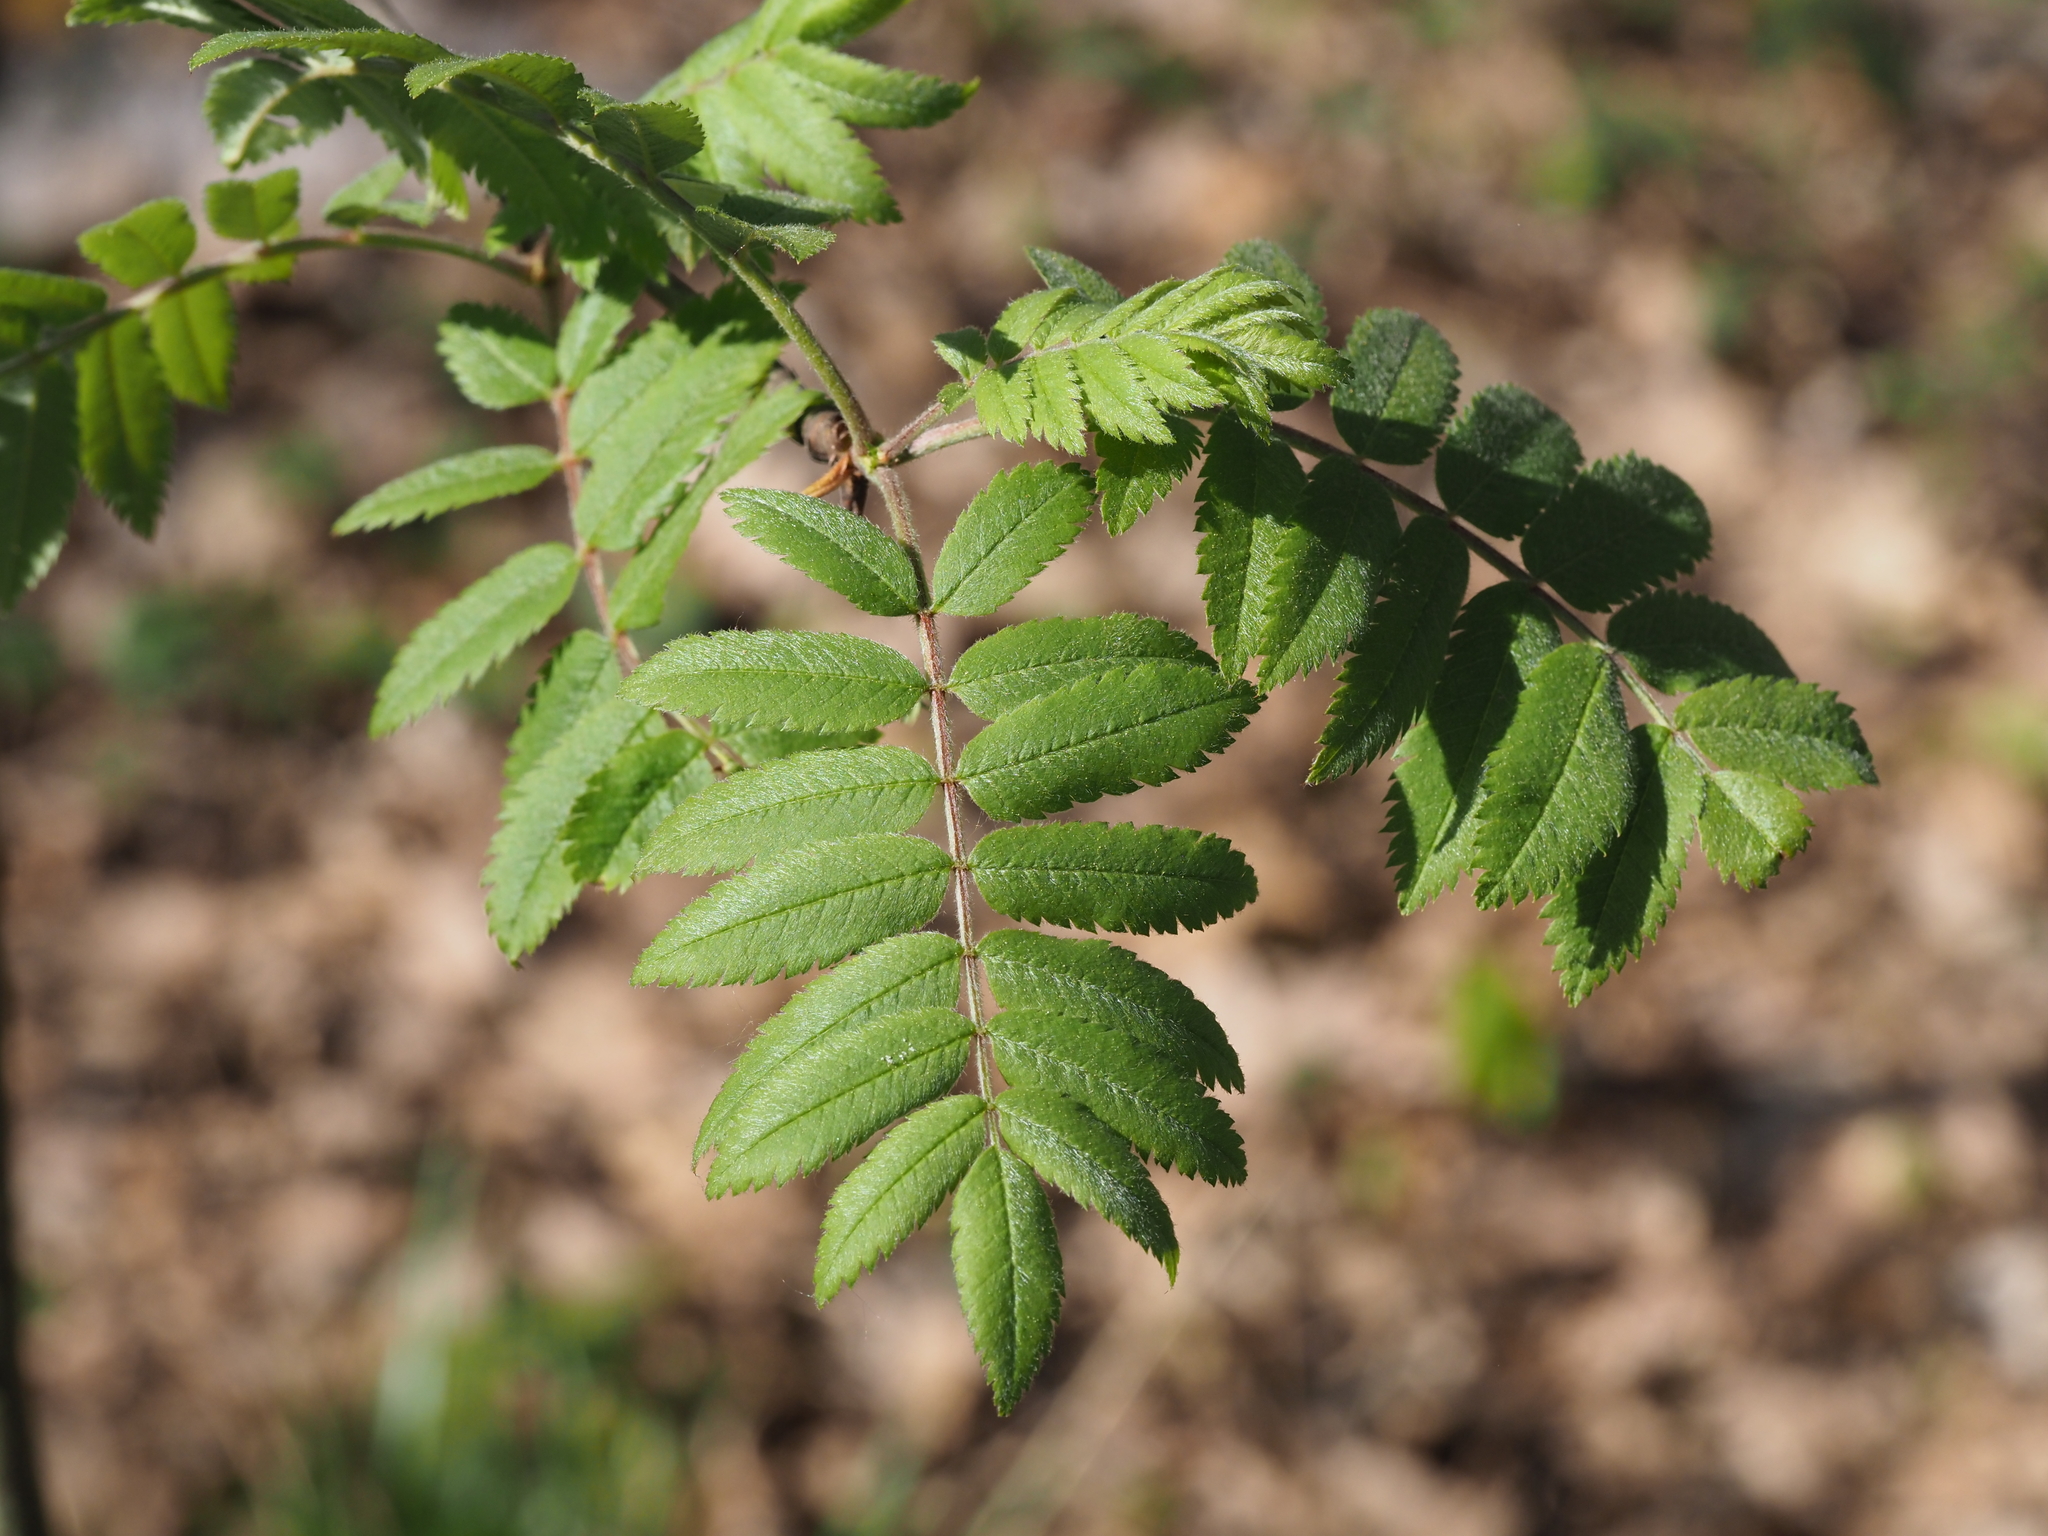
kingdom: Plantae
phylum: Tracheophyta
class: Magnoliopsida
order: Rosales
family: Rosaceae
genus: Sorbus
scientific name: Sorbus aucuparia
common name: Rowan
